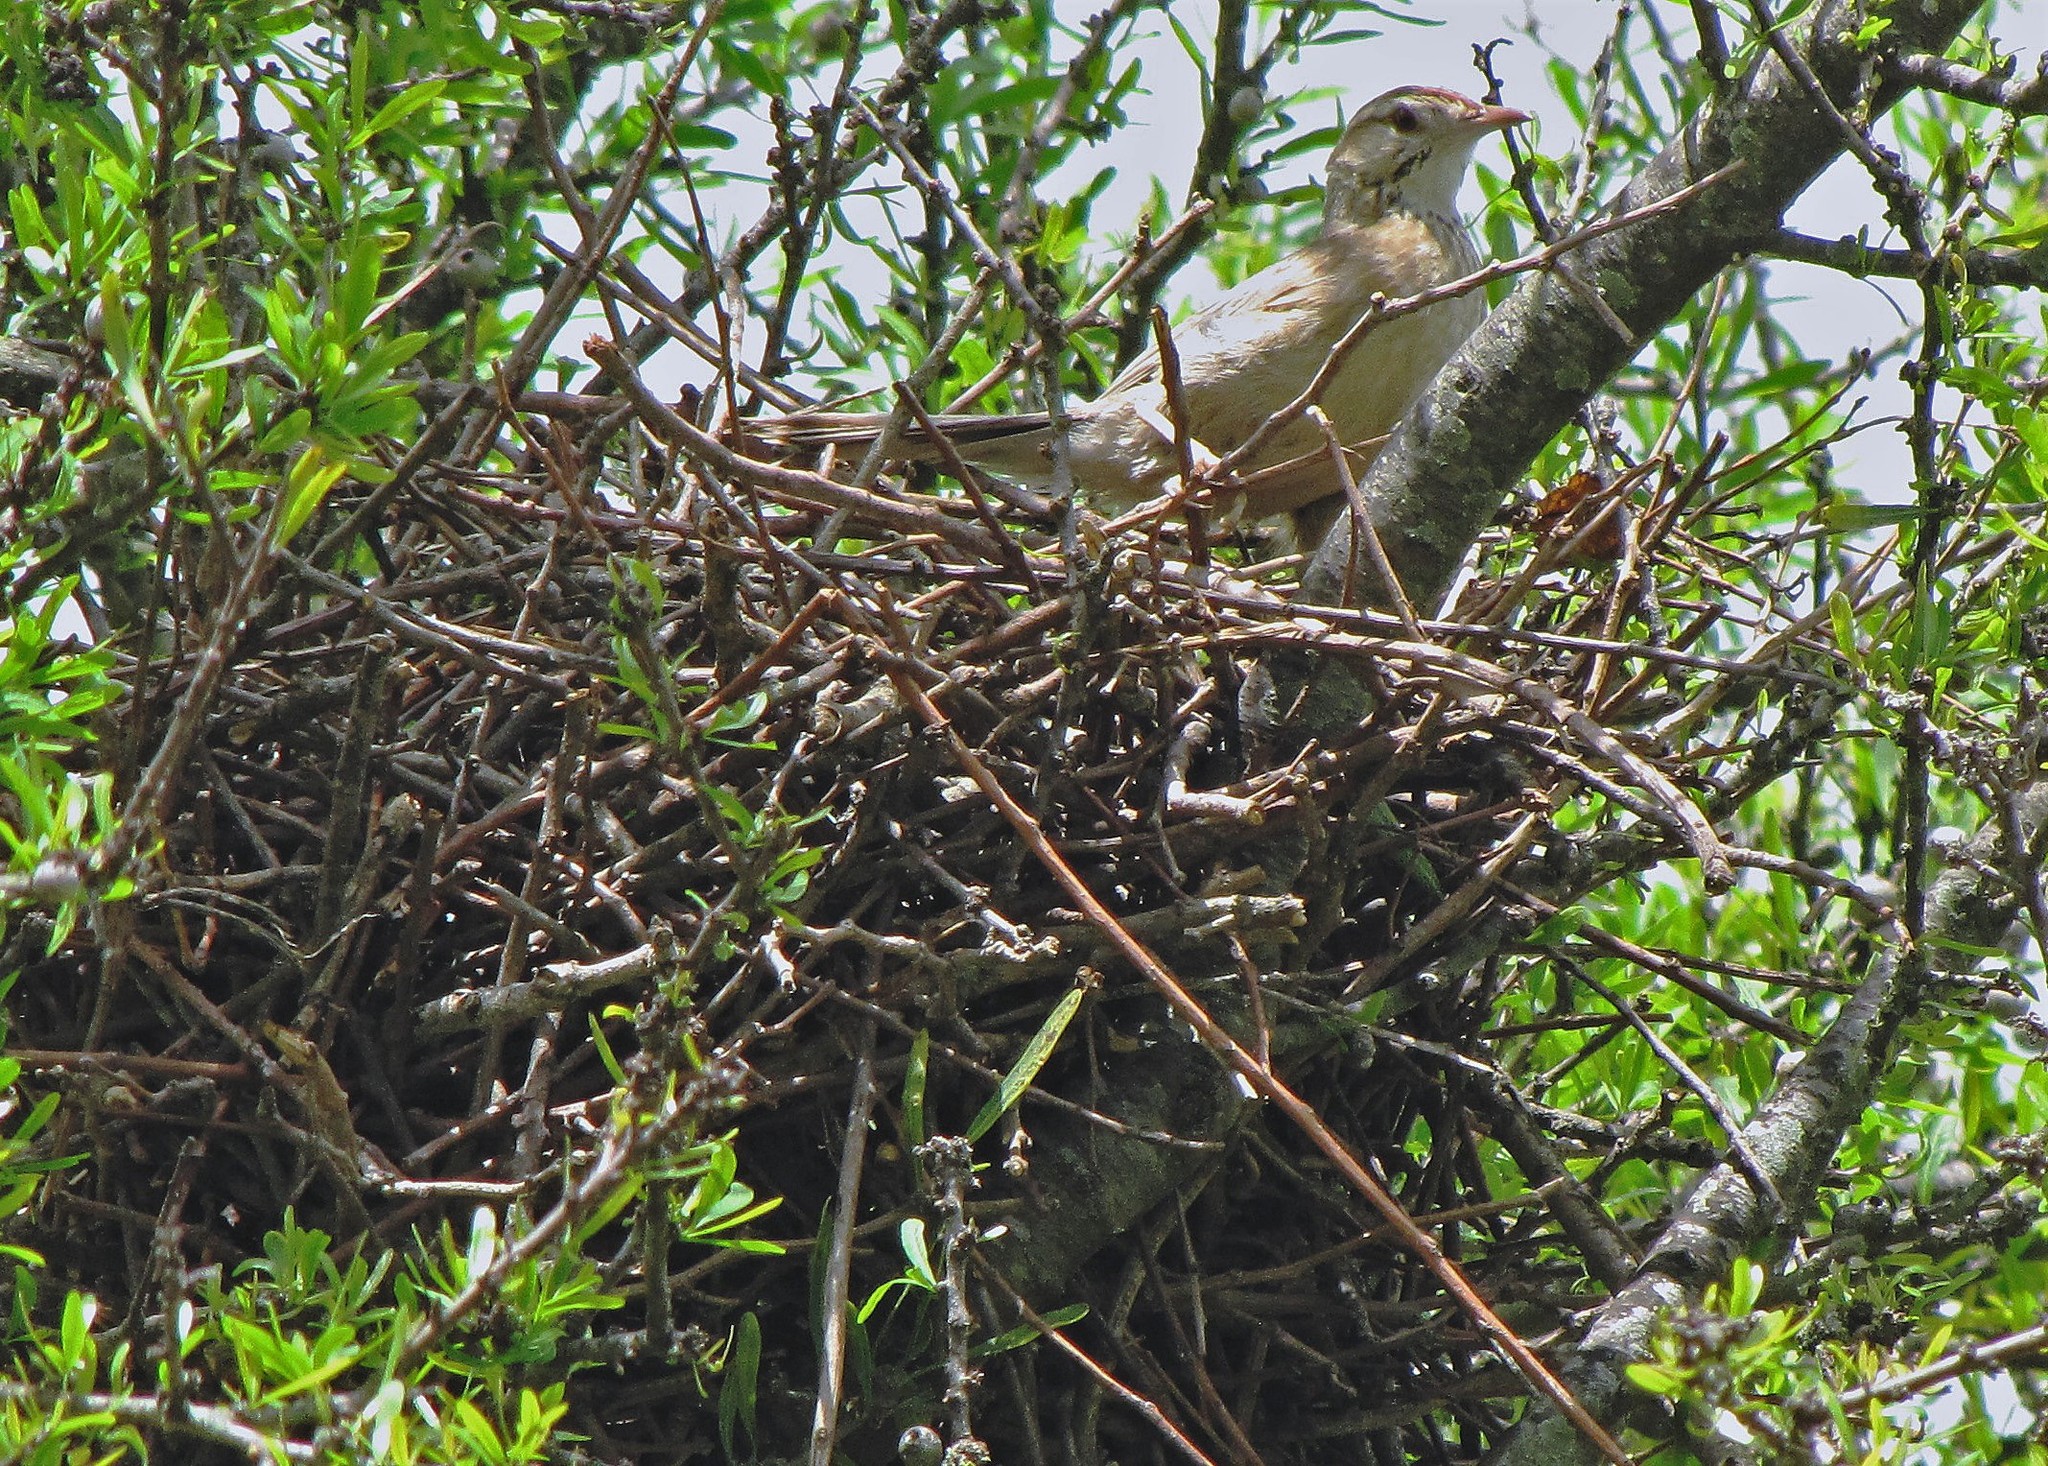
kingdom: Animalia
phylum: Chordata
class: Aves
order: Passeriformes
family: Furnariidae
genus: Anumbius
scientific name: Anumbius annumbi
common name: Firewood-gatherer
